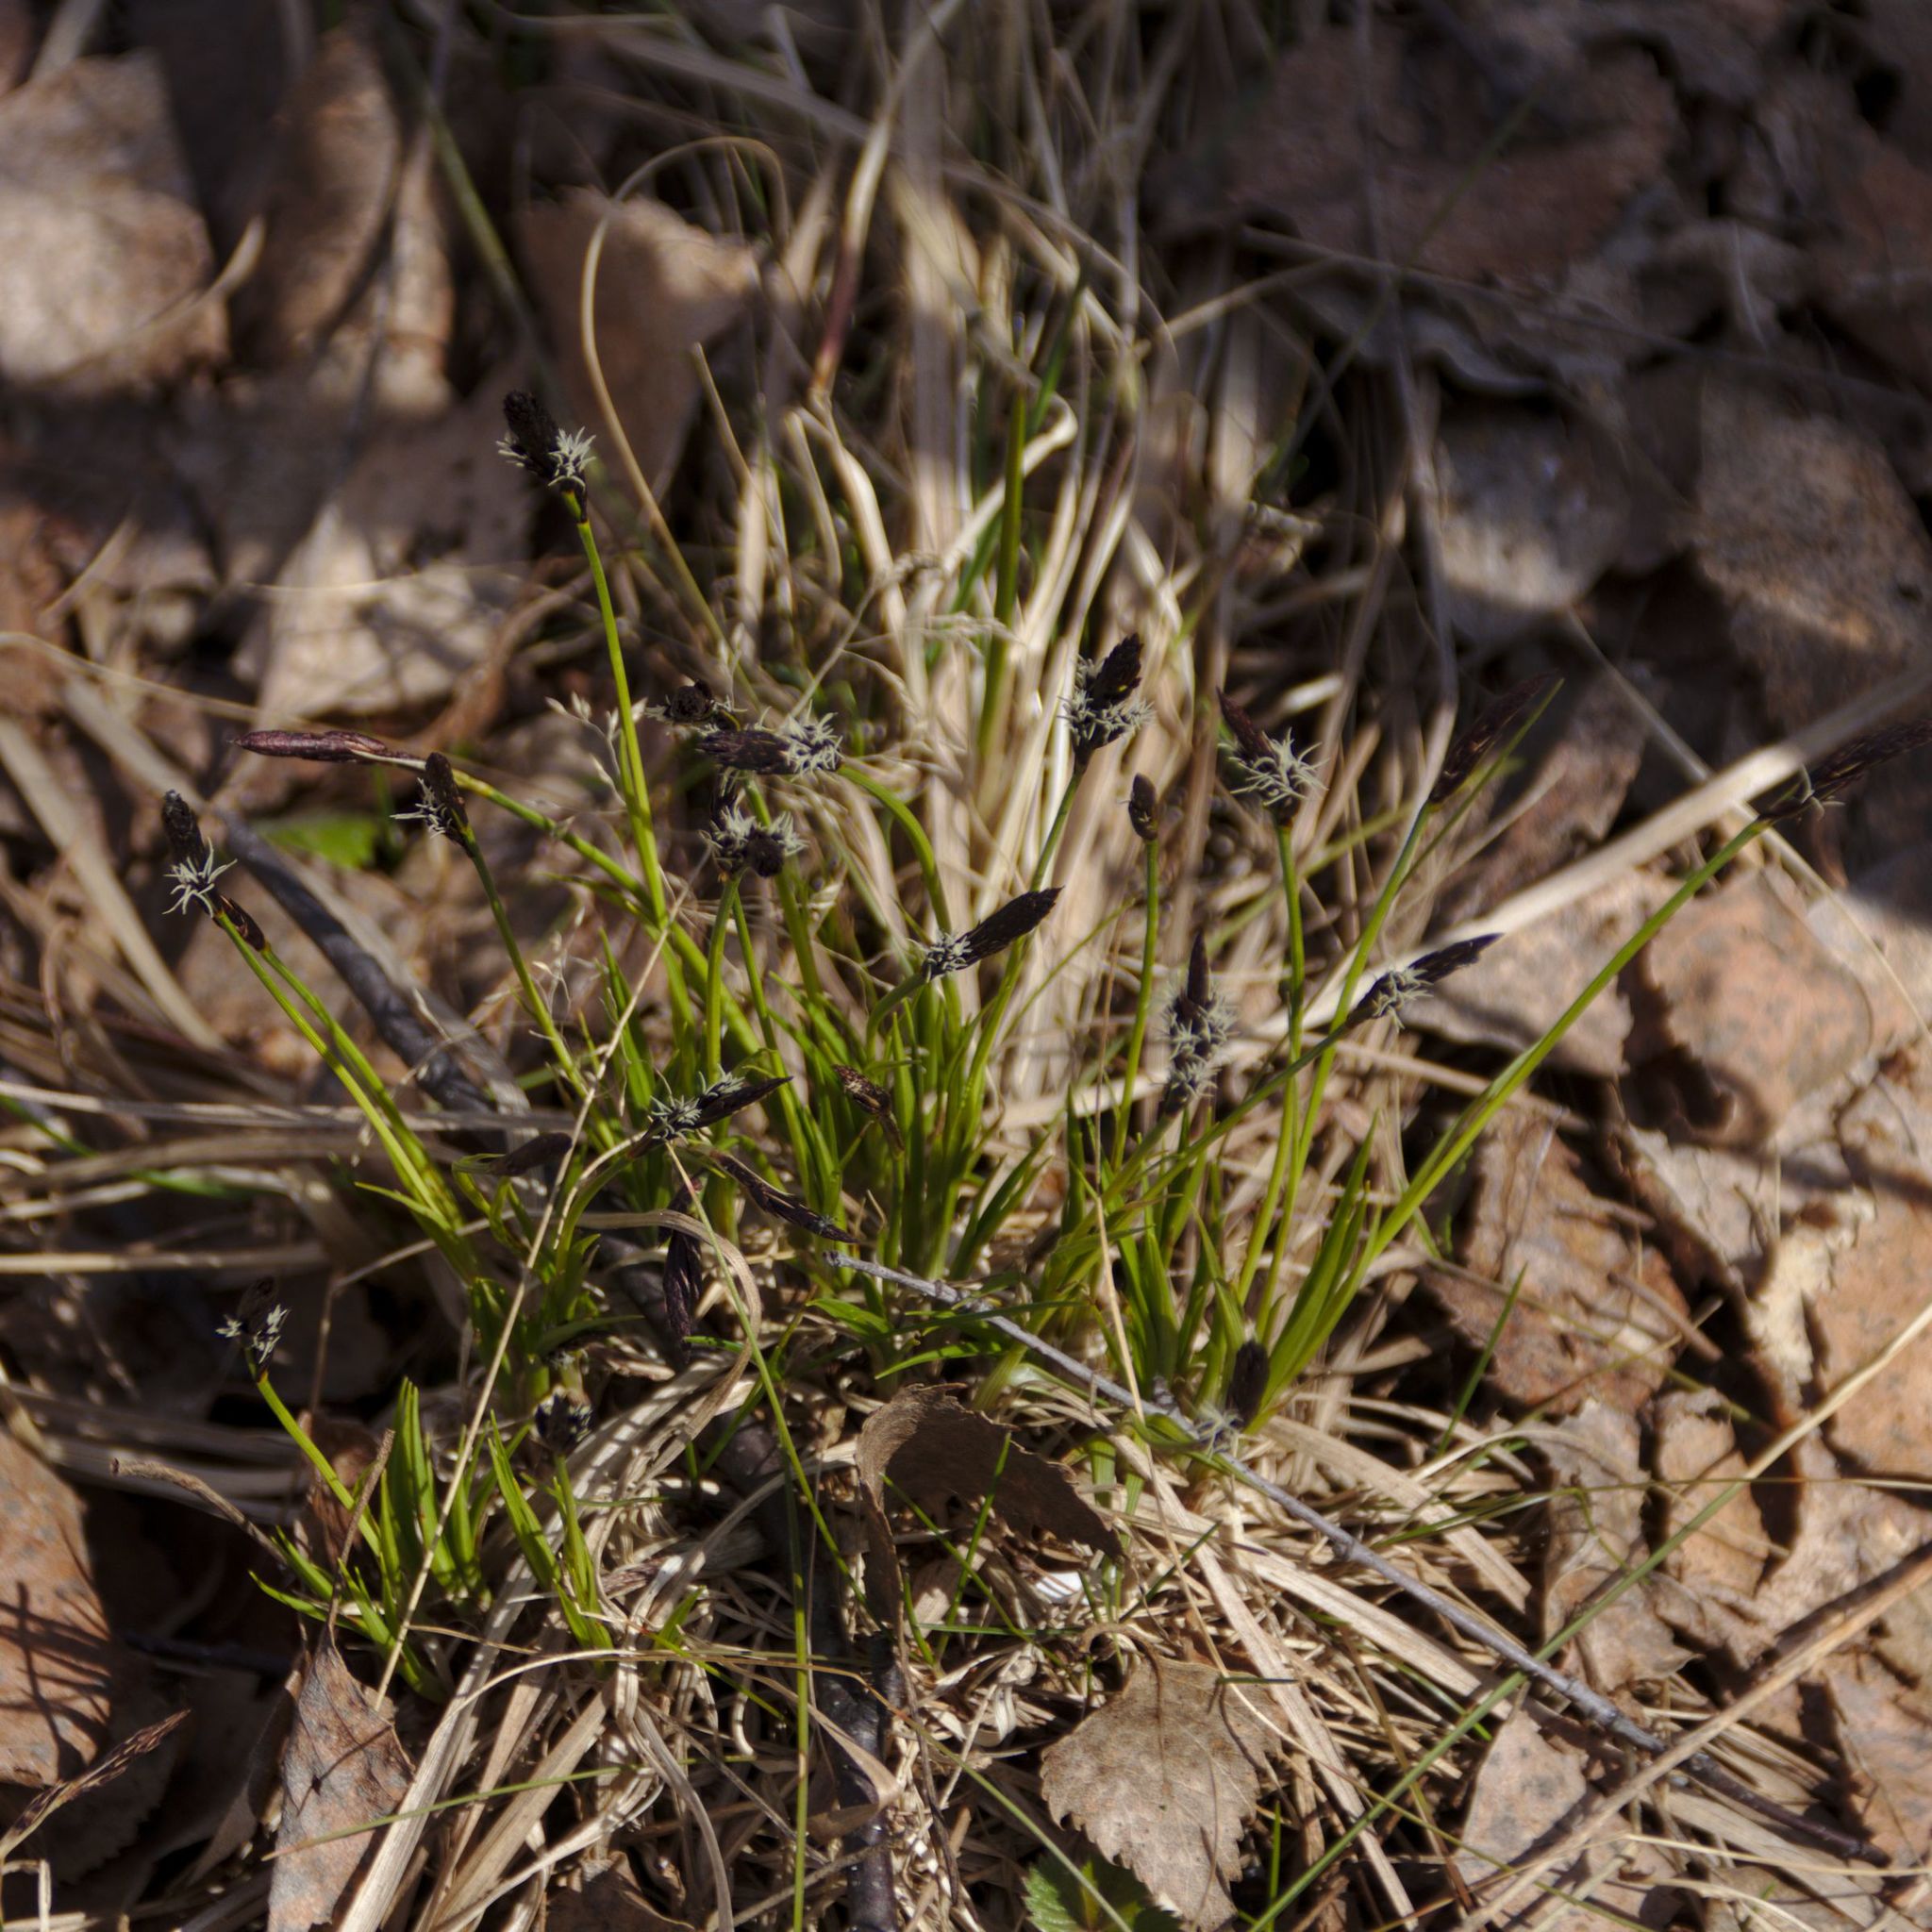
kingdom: Plantae
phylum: Tracheophyta
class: Liliopsida
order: Poales
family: Cyperaceae
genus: Carex
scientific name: Carex montana
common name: Soft-leaved sedge
